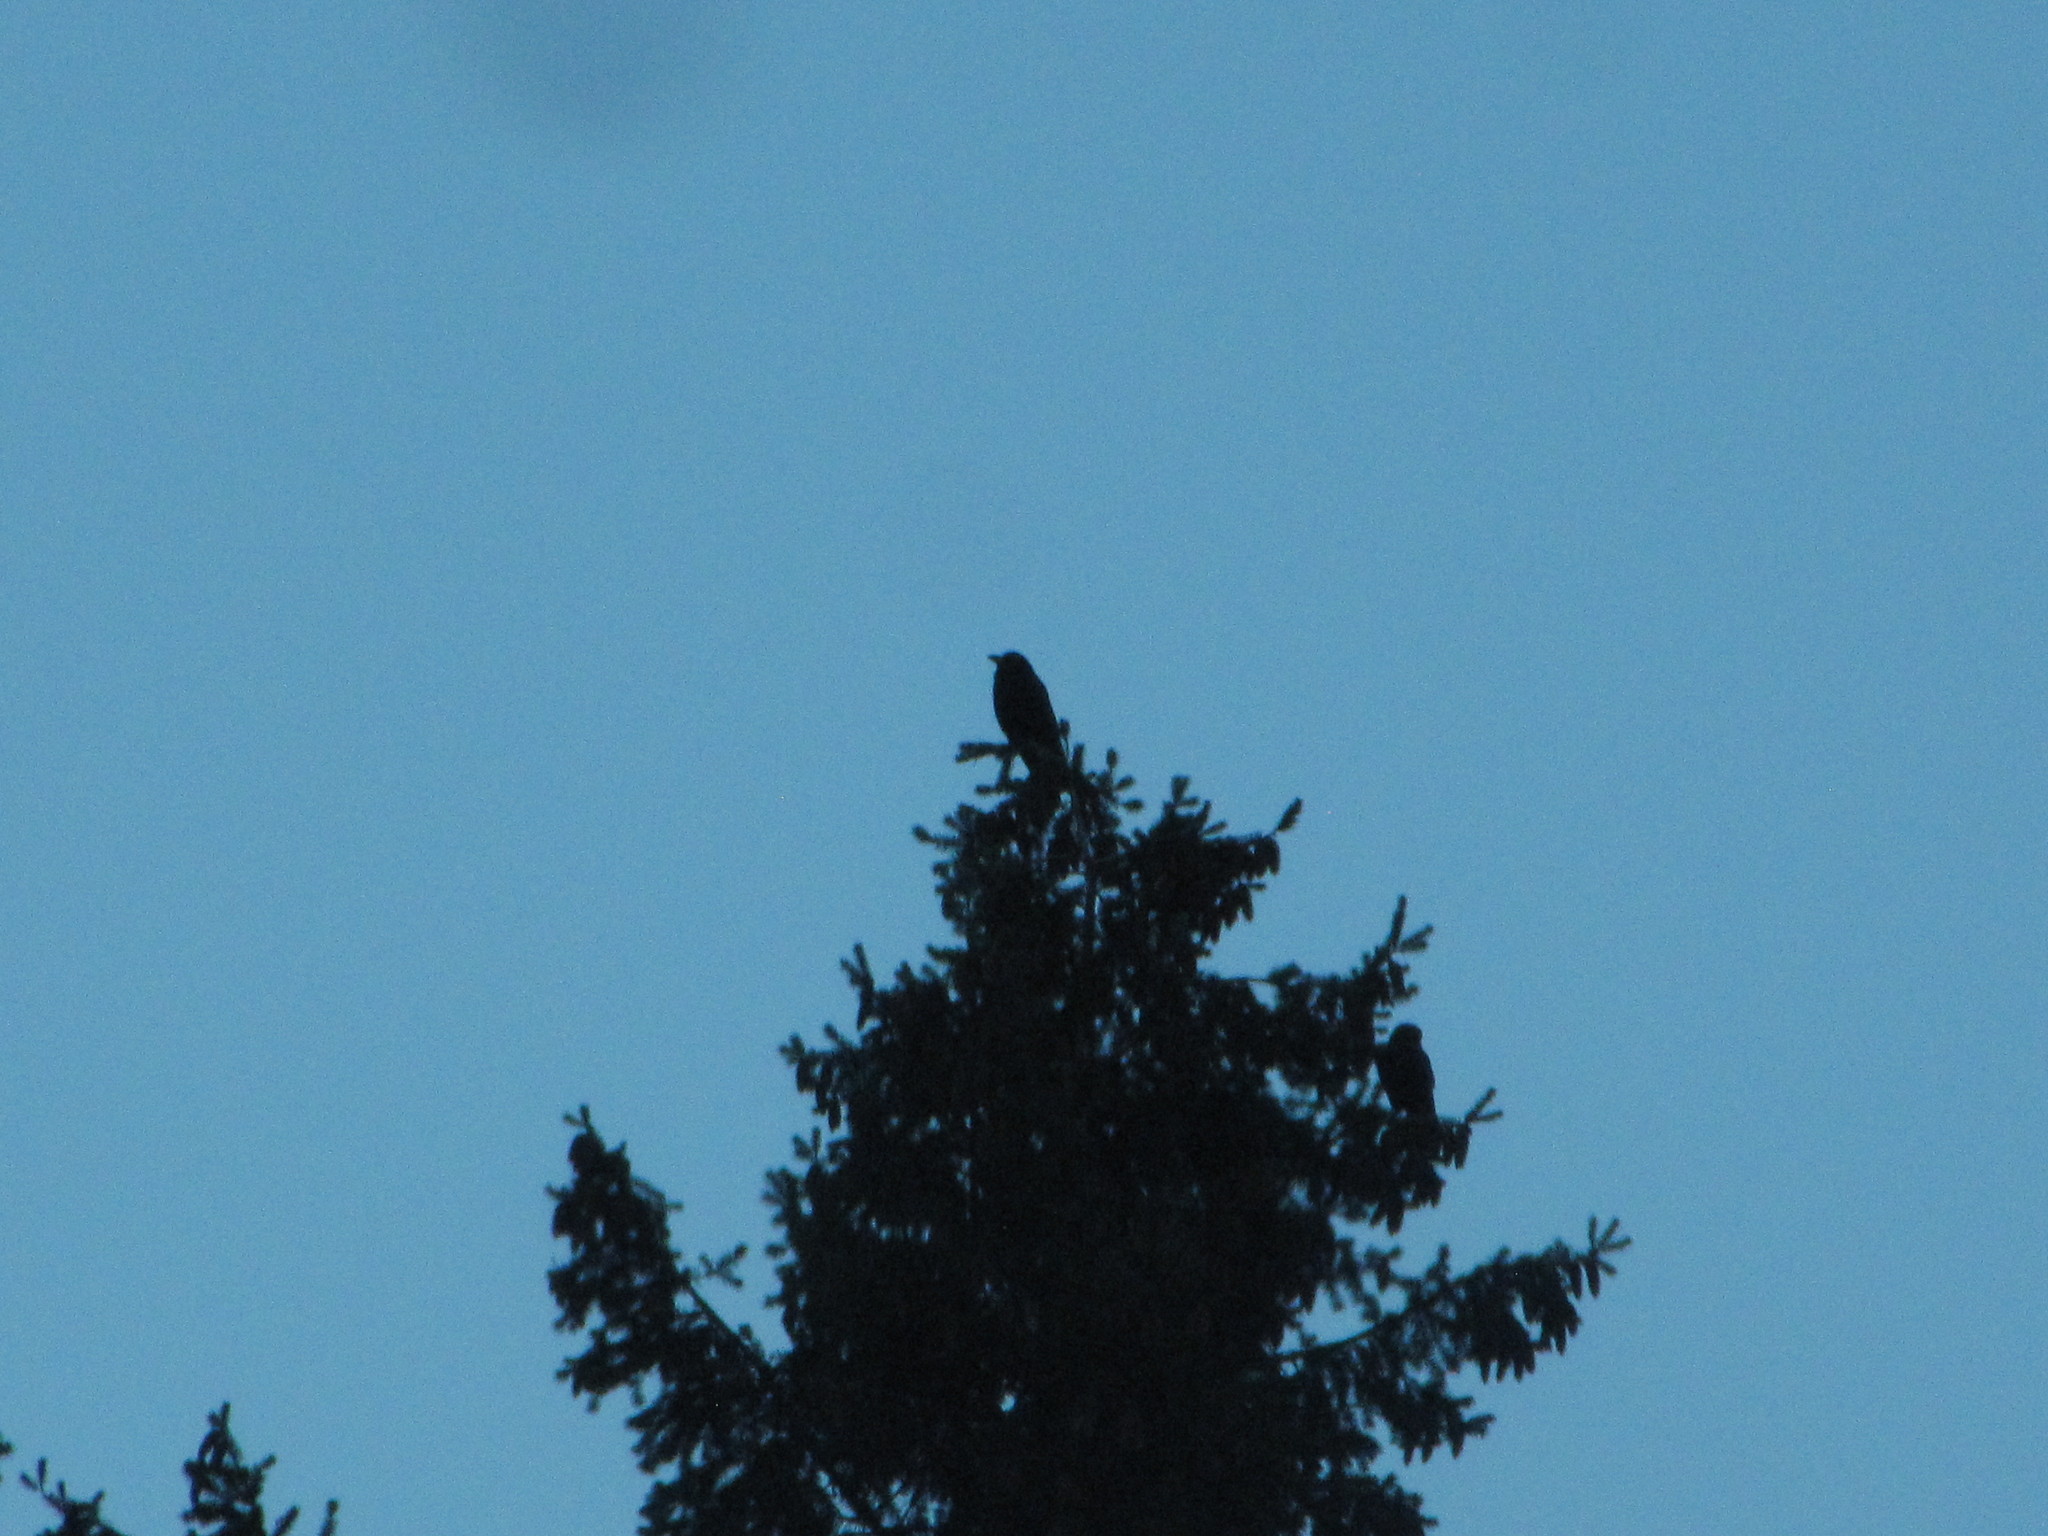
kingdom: Animalia
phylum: Chordata
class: Aves
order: Passeriformes
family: Corvidae
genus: Corvus
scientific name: Corvus brachyrhynchos
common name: American crow
